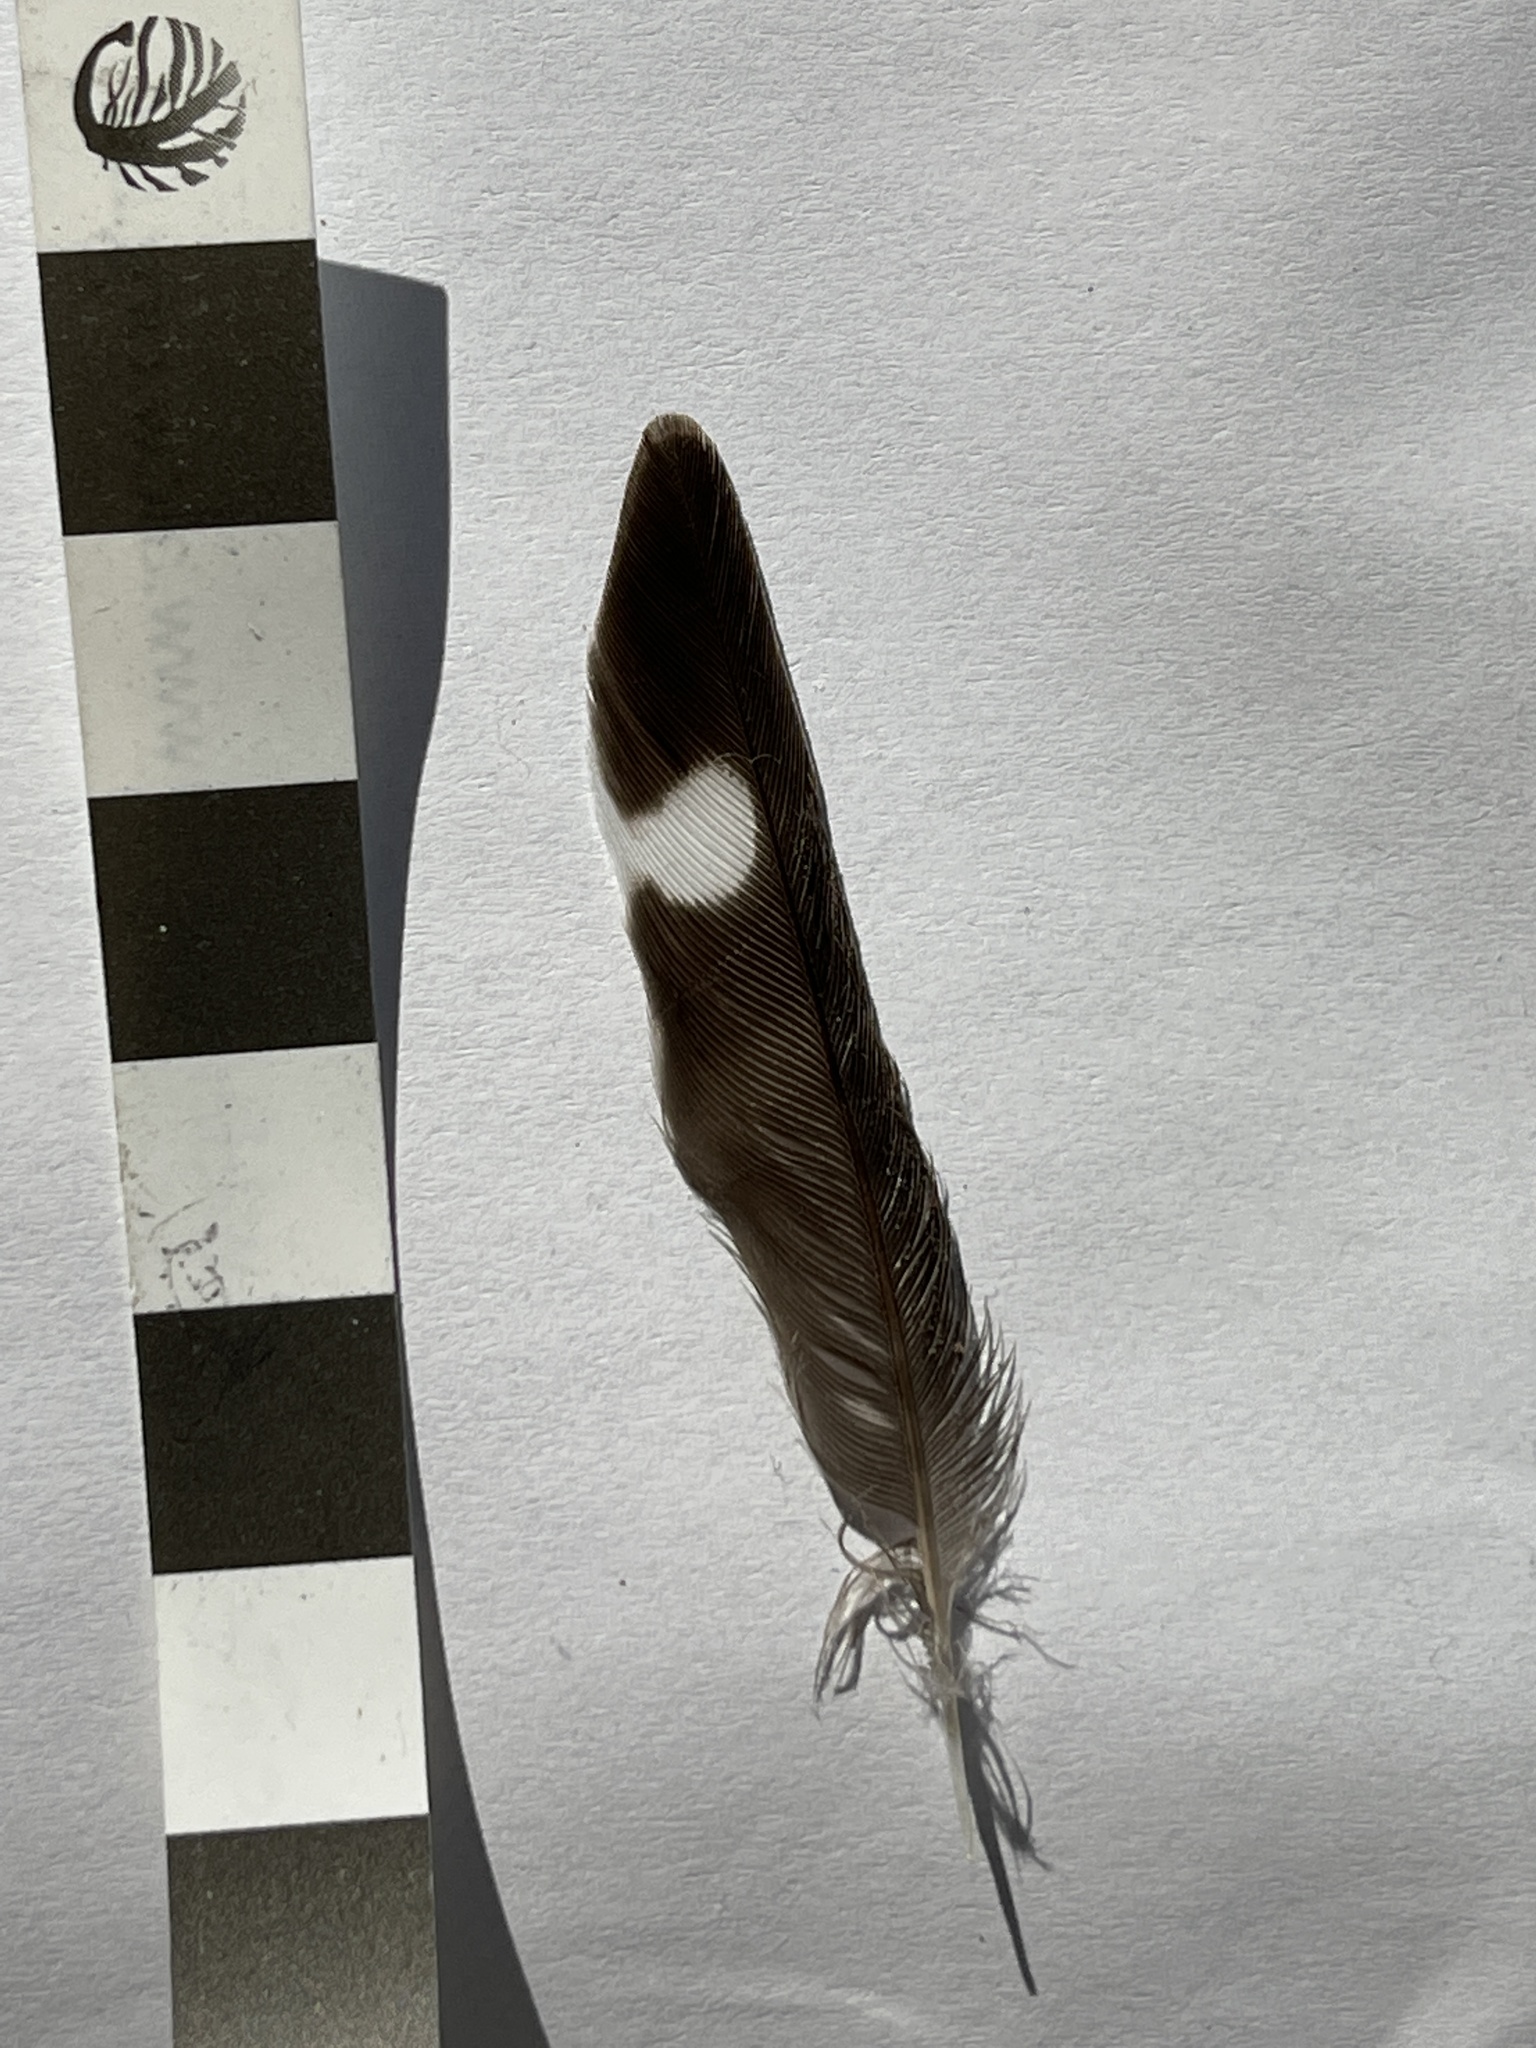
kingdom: Animalia
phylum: Chordata
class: Aves
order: Passeriformes
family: Hirundinidae
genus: Hirundo
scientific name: Hirundo neoxena
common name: Welcome swallow
